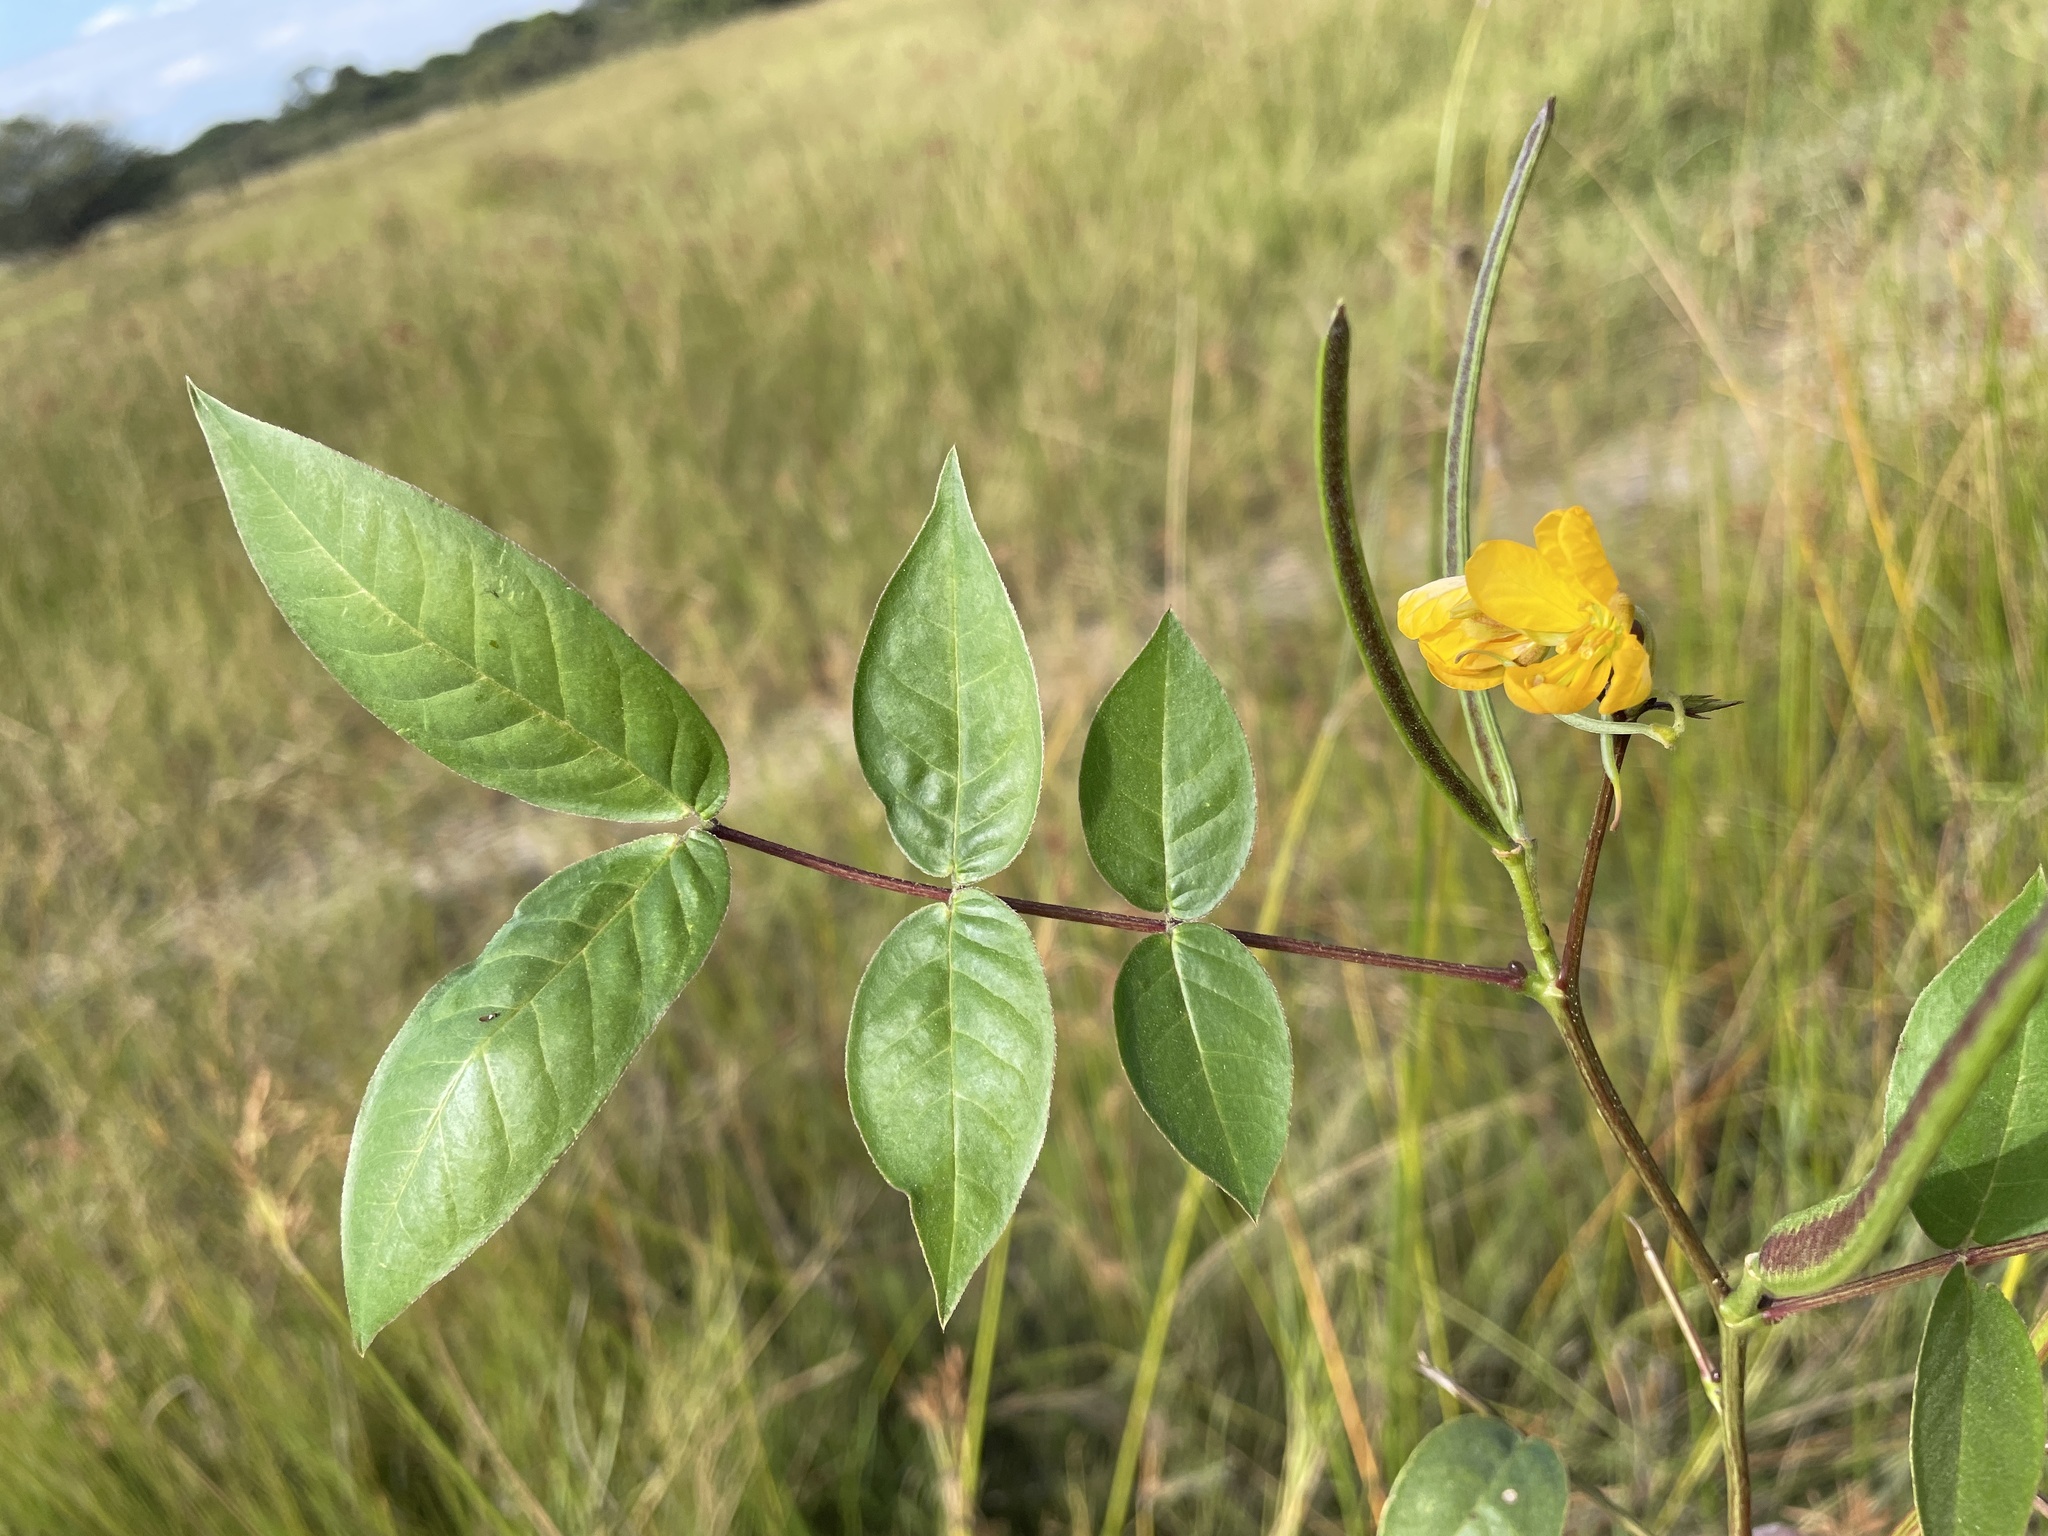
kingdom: Plantae
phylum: Tracheophyta
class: Magnoliopsida
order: Fabales
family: Fabaceae
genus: Senna
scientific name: Senna occidentalis
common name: Septicweed
